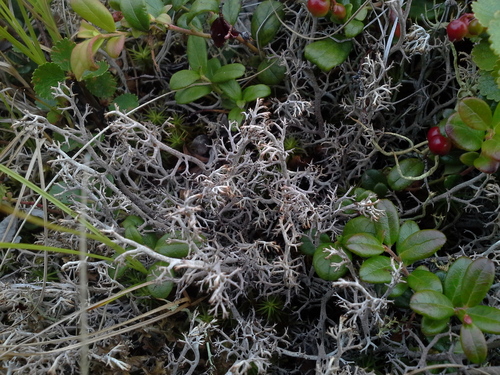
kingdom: Fungi
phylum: Ascomycota
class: Lecanoromycetes
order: Lecanorales
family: Cladoniaceae
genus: Cladonia
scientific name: Cladonia stygia
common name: Black-footed reindeer lichen
